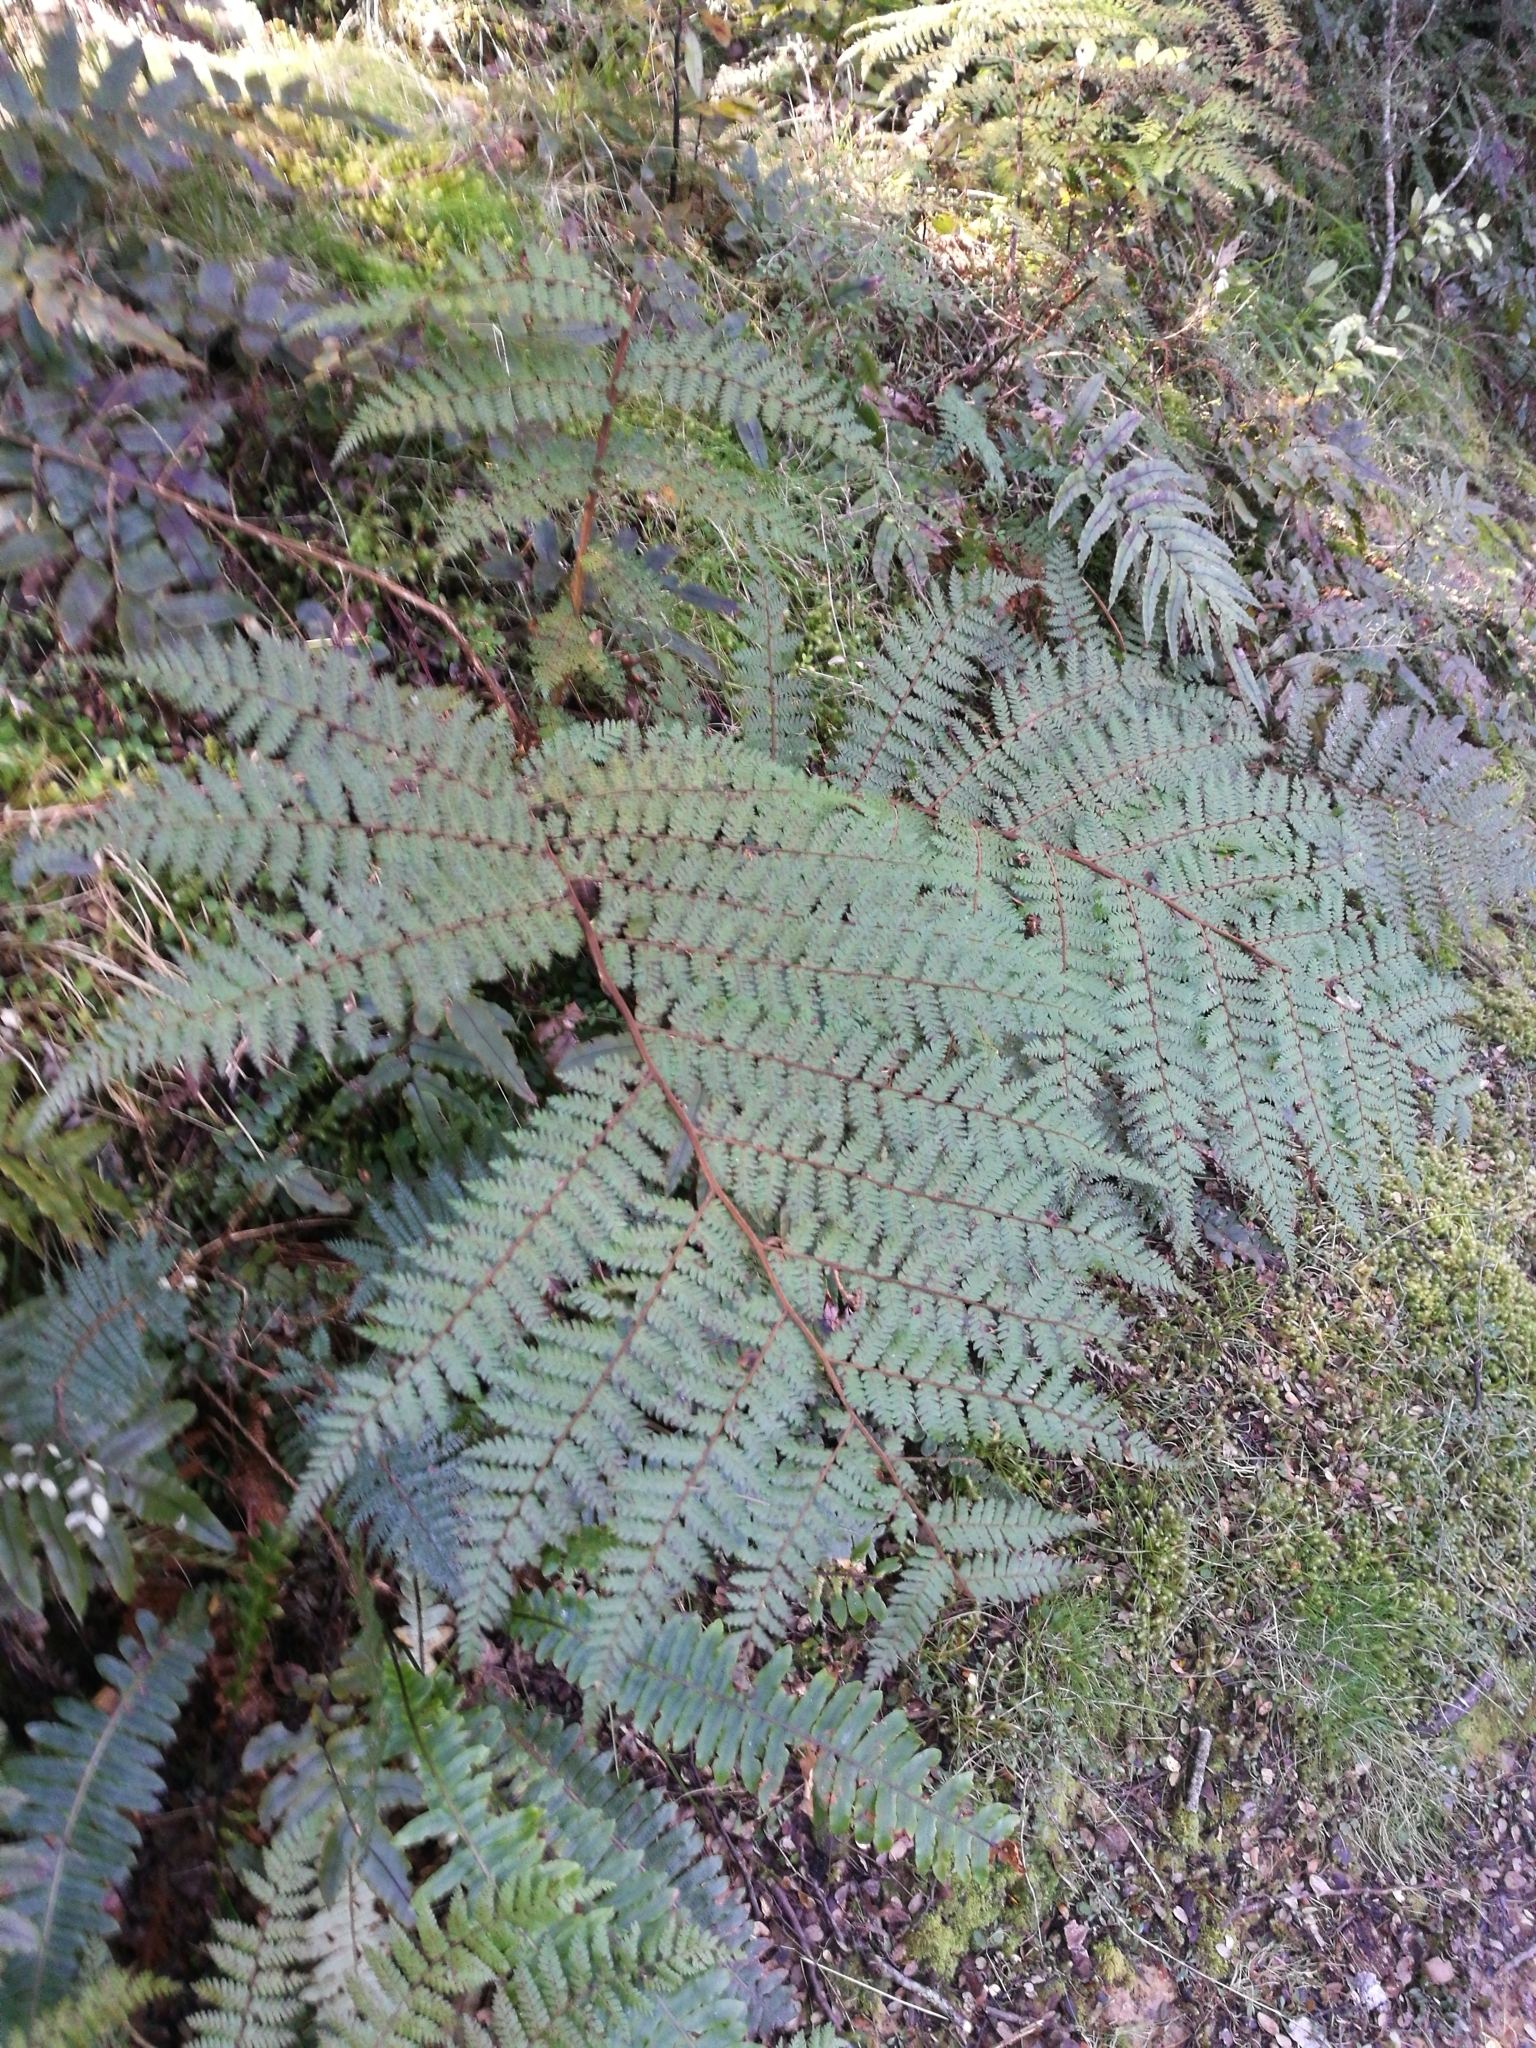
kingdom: Plantae
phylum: Tracheophyta
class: Polypodiopsida
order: Cyatheales
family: Cyatheaceae
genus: Alsophila
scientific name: Alsophila colensoi
